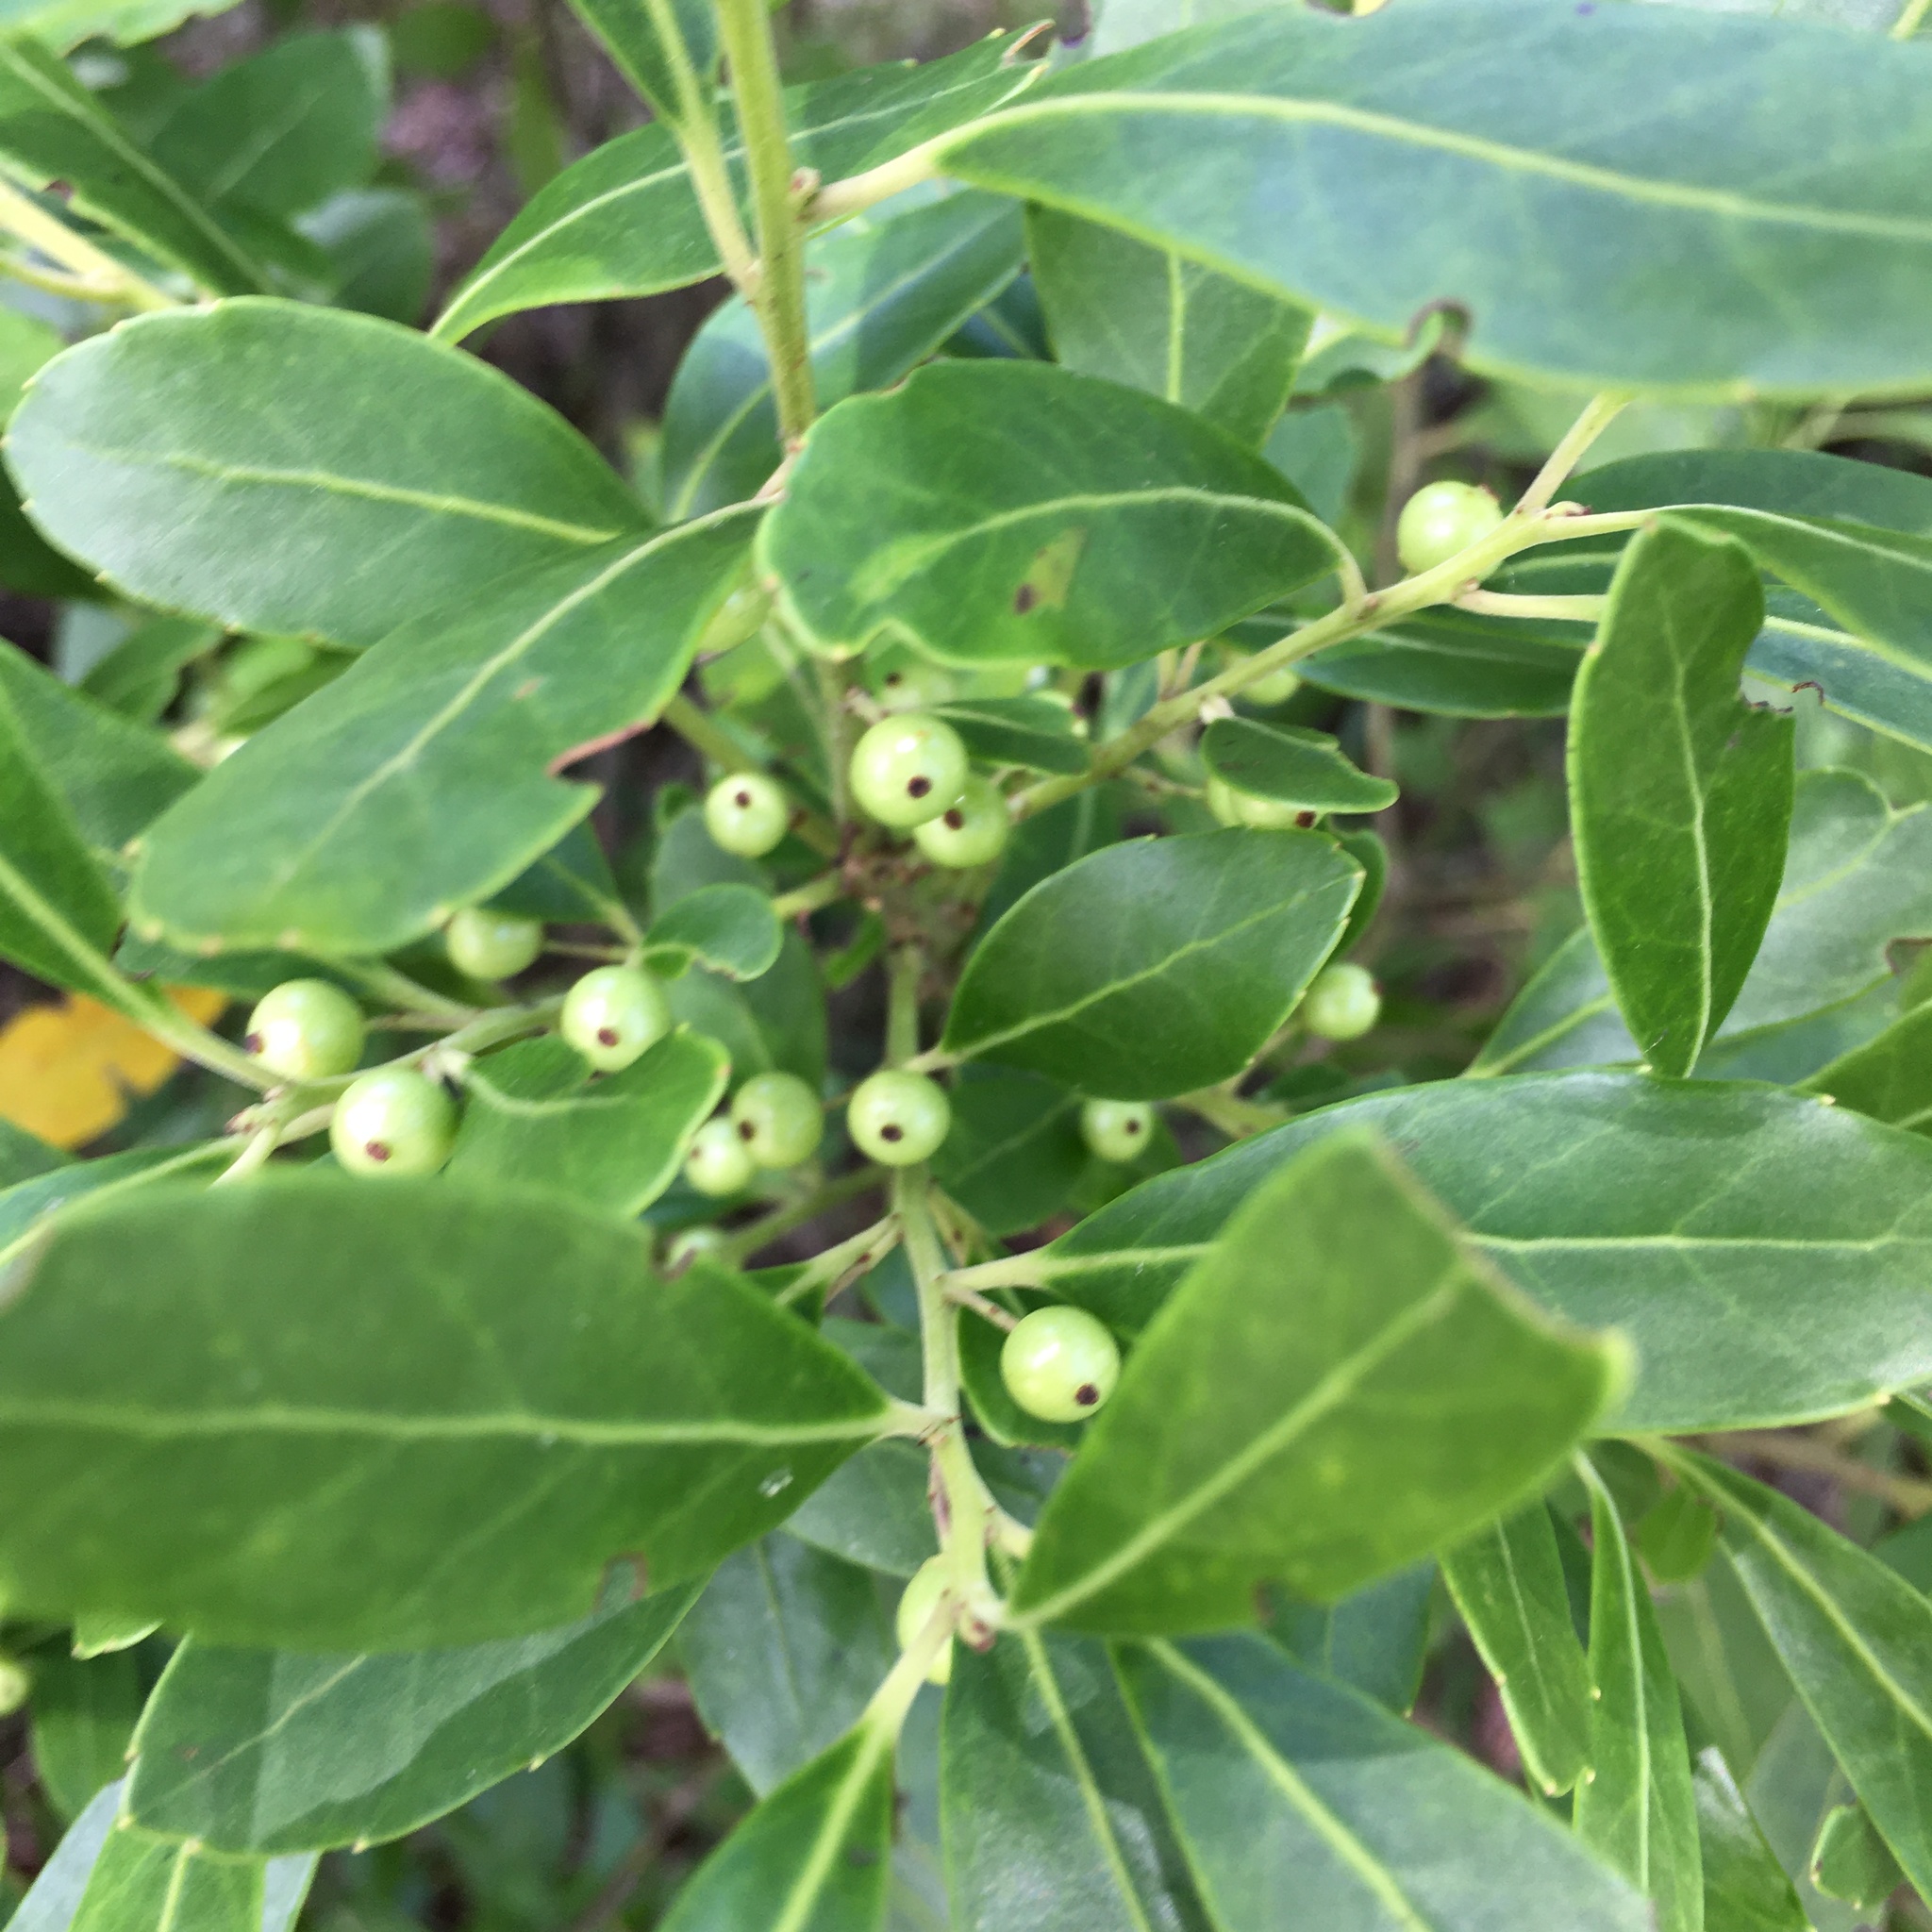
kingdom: Plantae
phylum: Tracheophyta
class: Magnoliopsida
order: Aquifoliales
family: Aquifoliaceae
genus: Ilex
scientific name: Ilex glabra
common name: Bitter gallberry
